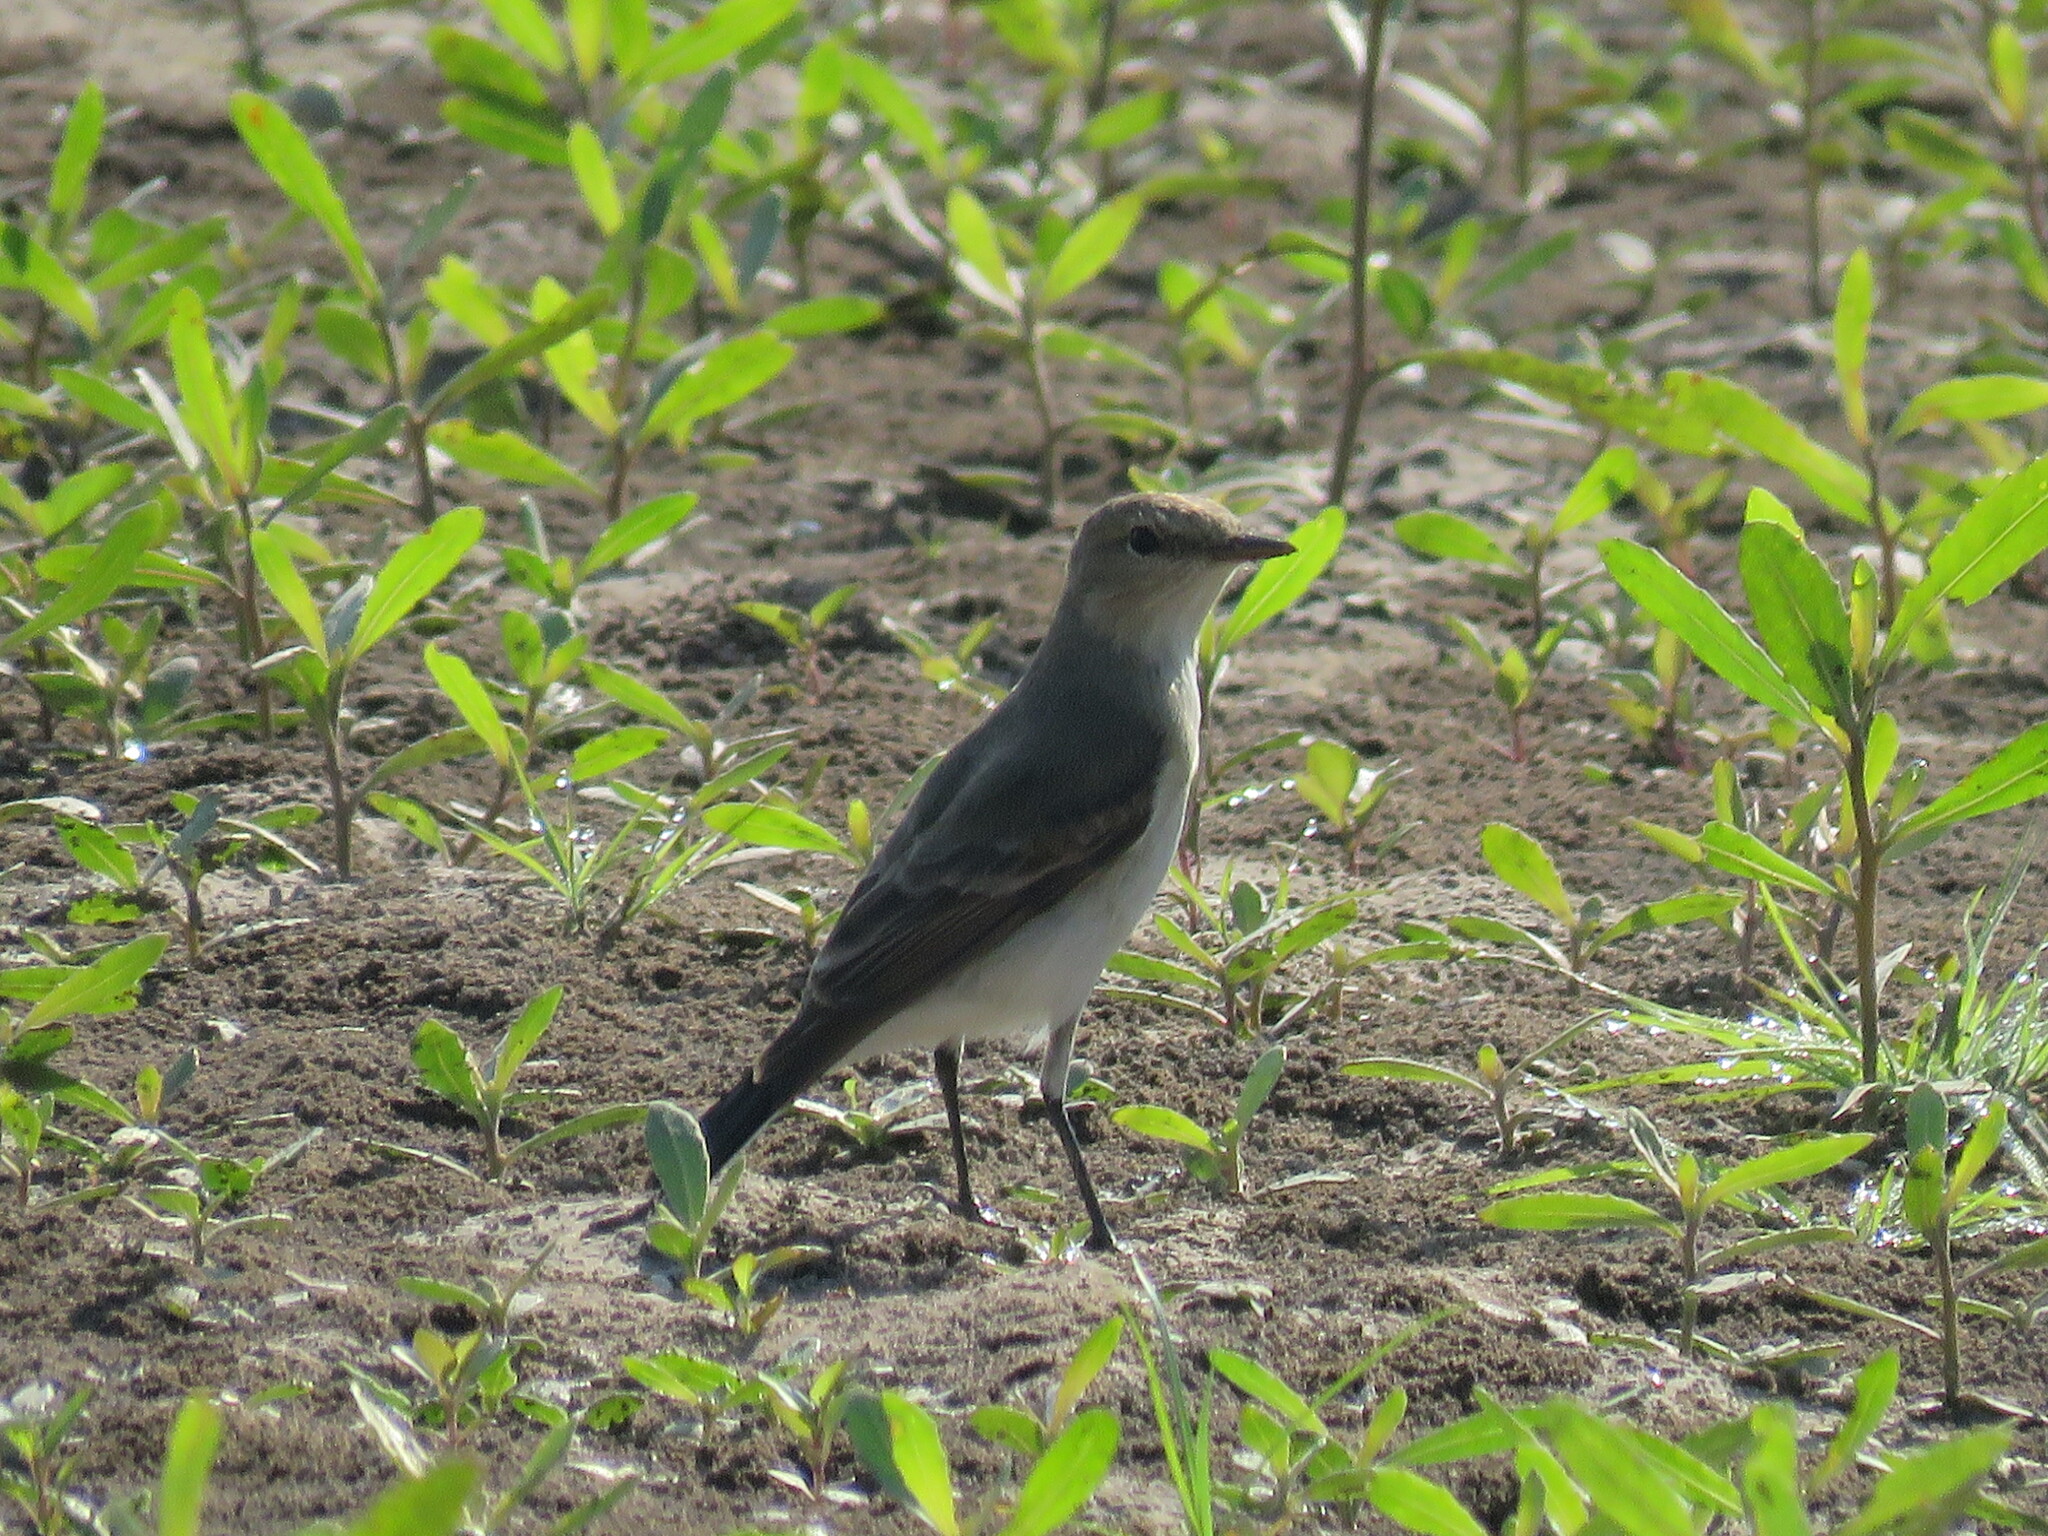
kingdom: Animalia
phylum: Chordata
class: Aves
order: Passeriformes
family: Tyrannidae
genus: Muscisaxicola
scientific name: Muscisaxicola fluviatilis
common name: Little ground tyrant
